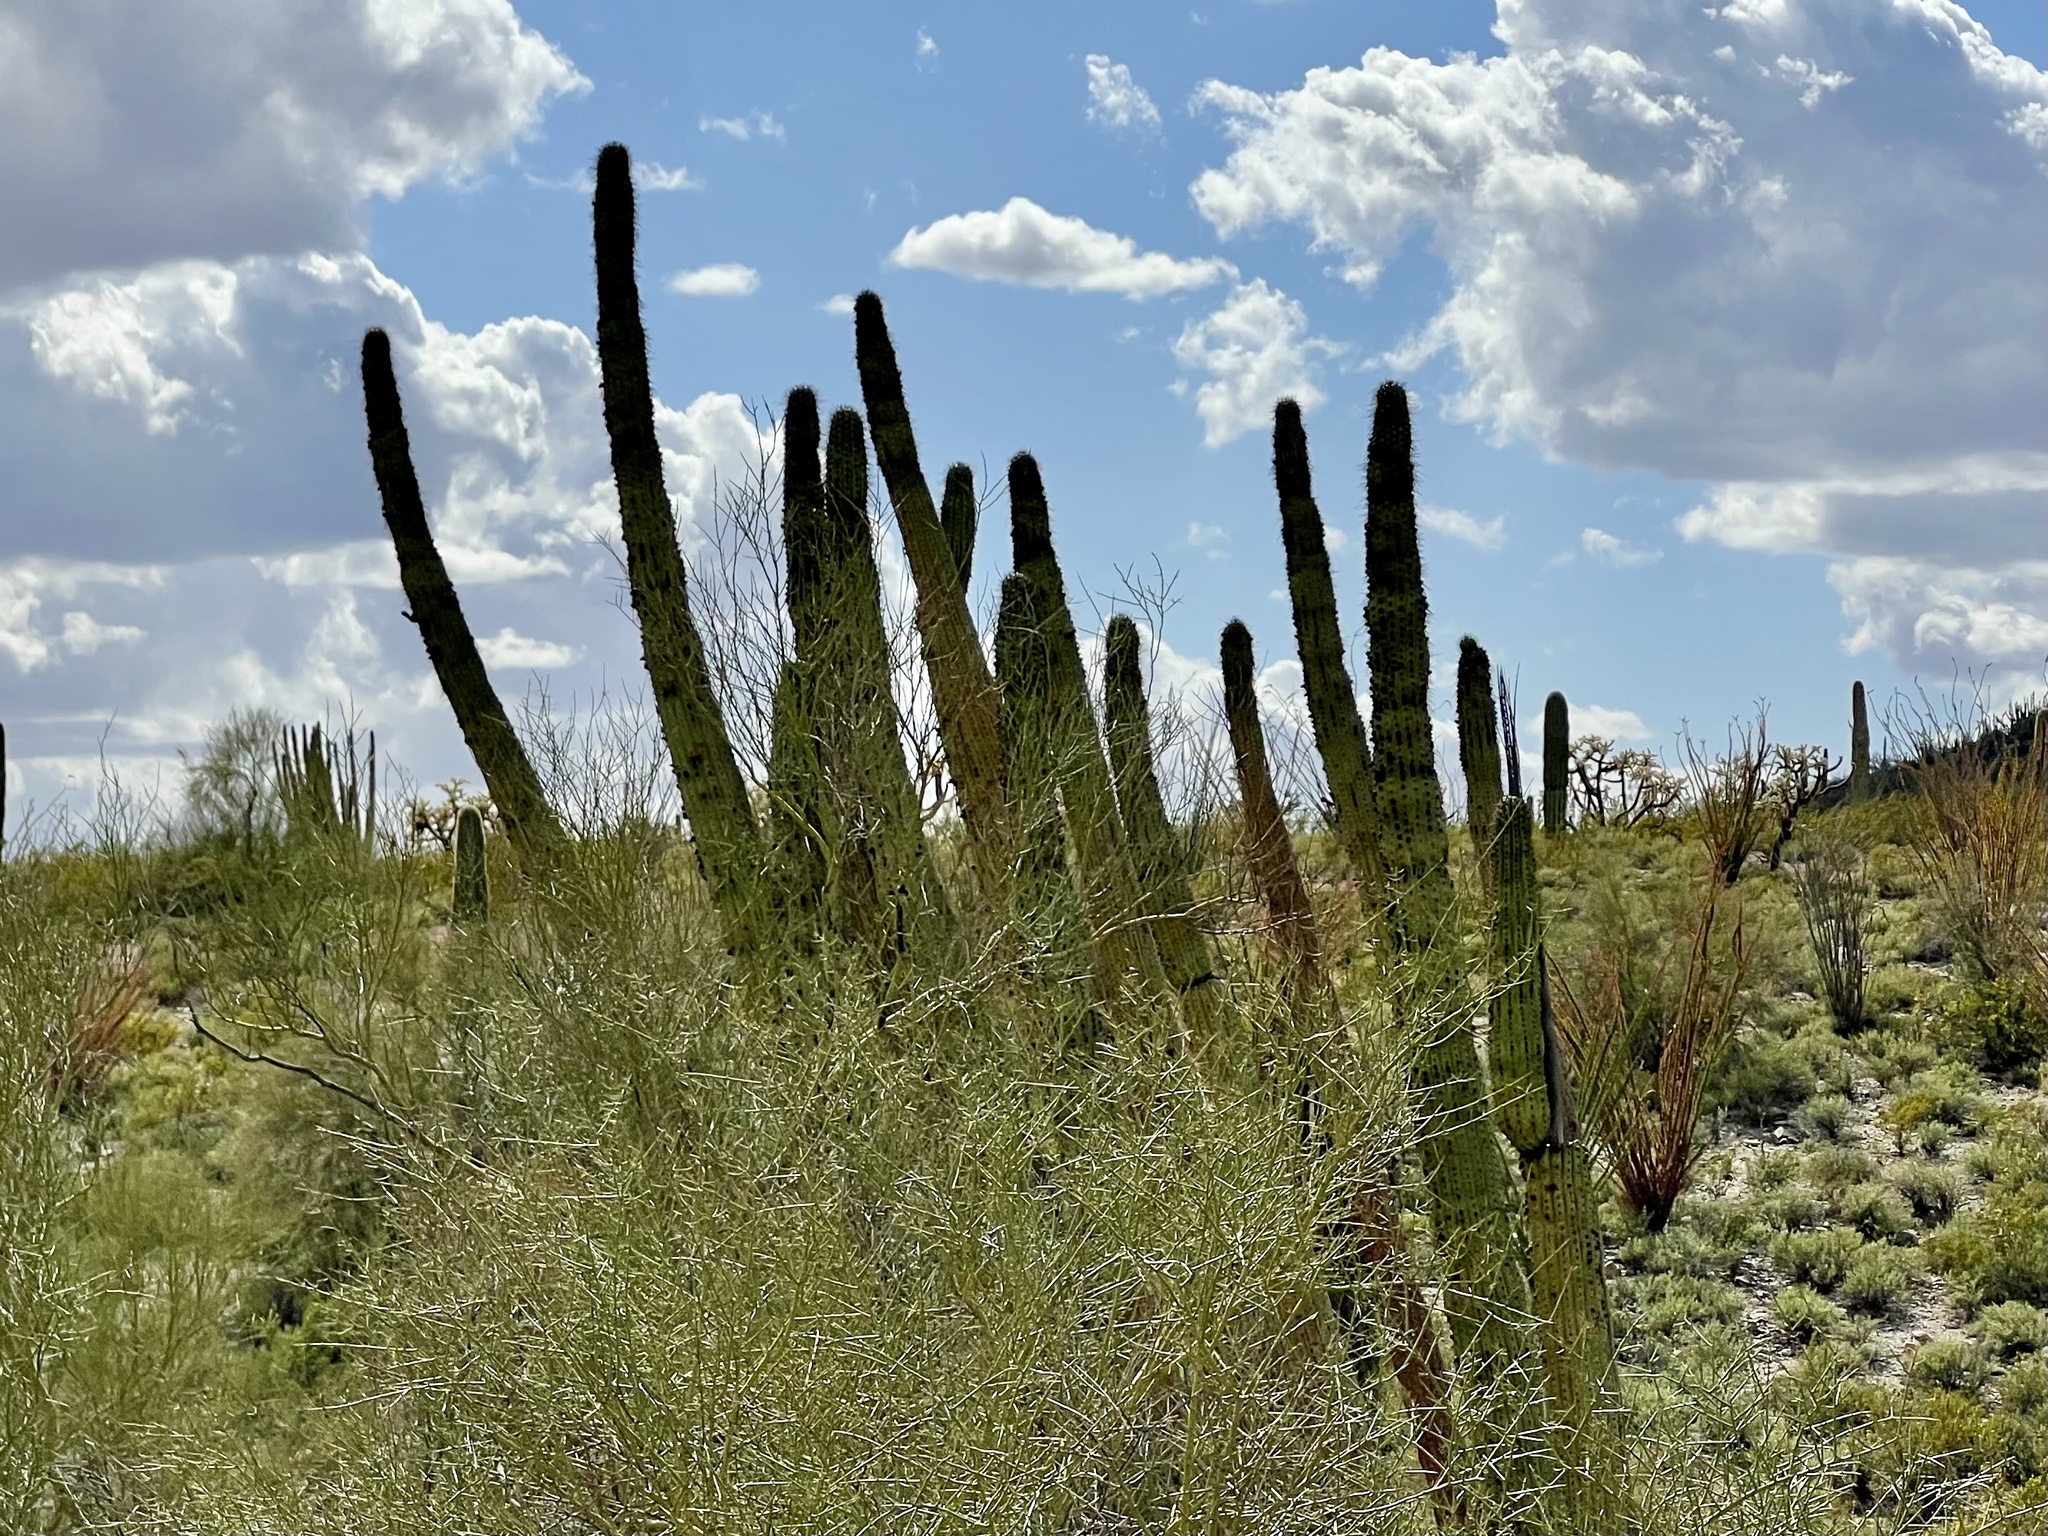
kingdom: Plantae
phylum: Tracheophyta
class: Magnoliopsida
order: Caryophyllales
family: Cactaceae
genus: Stenocereus
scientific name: Stenocereus thurberi
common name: Organ pipe cactus
